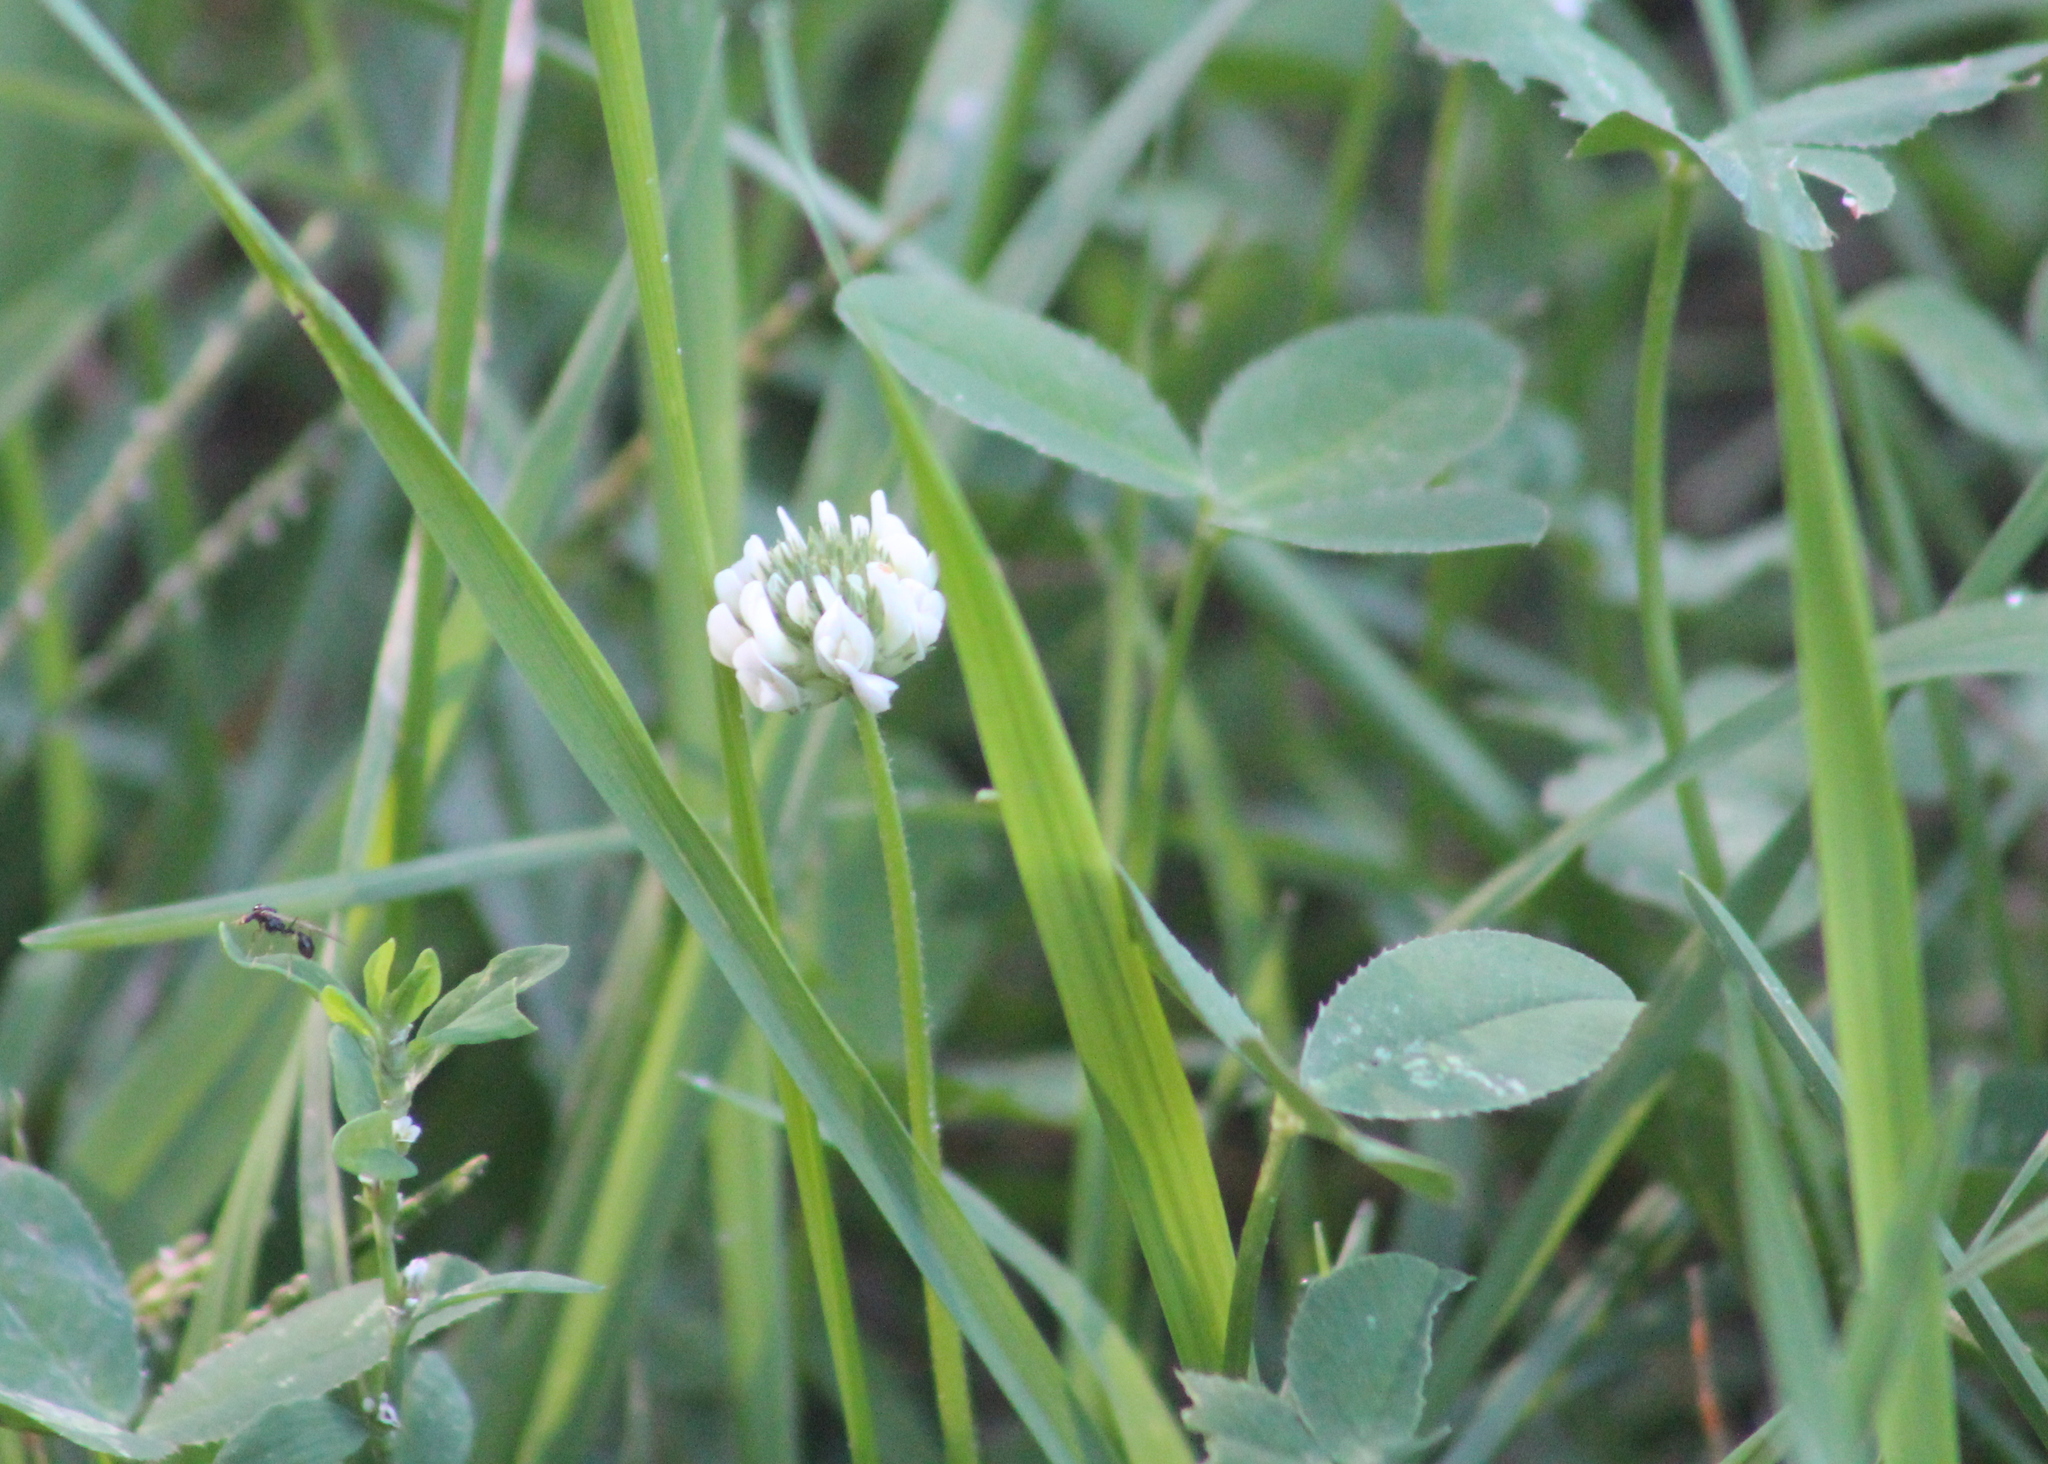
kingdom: Plantae
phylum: Tracheophyta
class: Magnoliopsida
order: Fabales
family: Fabaceae
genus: Trifolium
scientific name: Trifolium repens
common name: White clover
